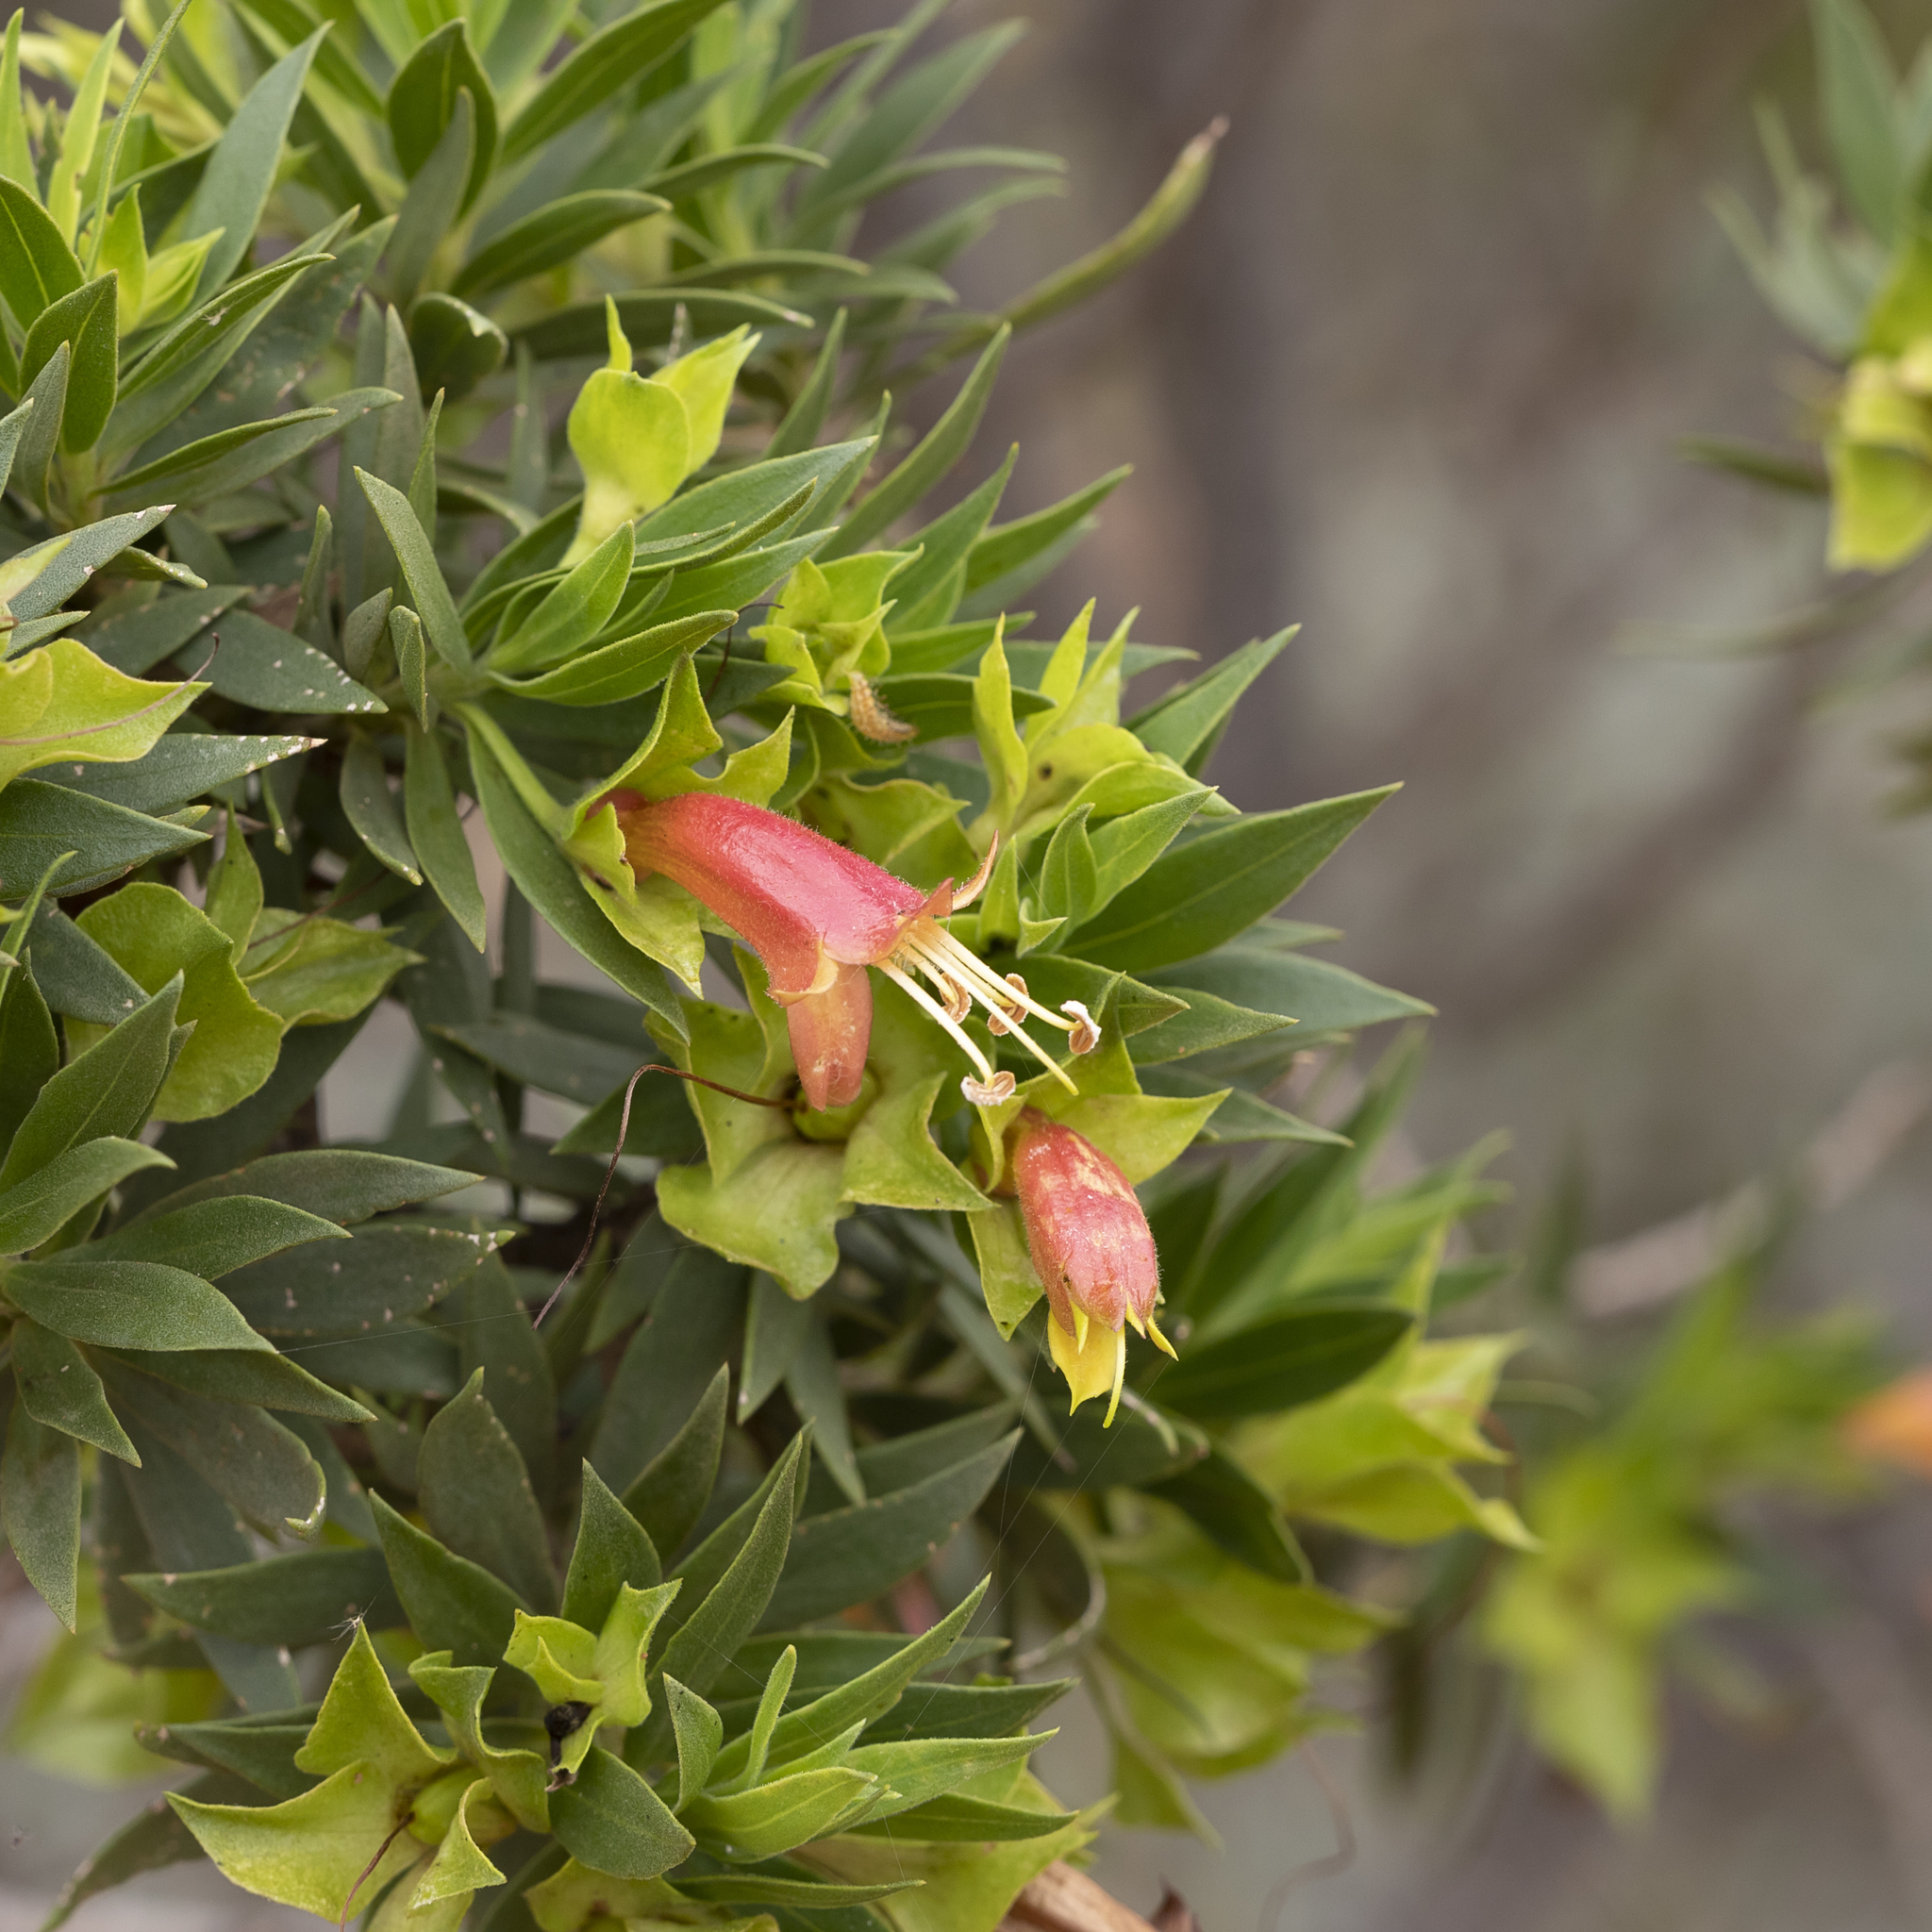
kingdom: Plantae
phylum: Tracheophyta
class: Magnoliopsida
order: Lamiales
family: Scrophulariaceae
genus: Eremophila
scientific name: Eremophila duttonii
